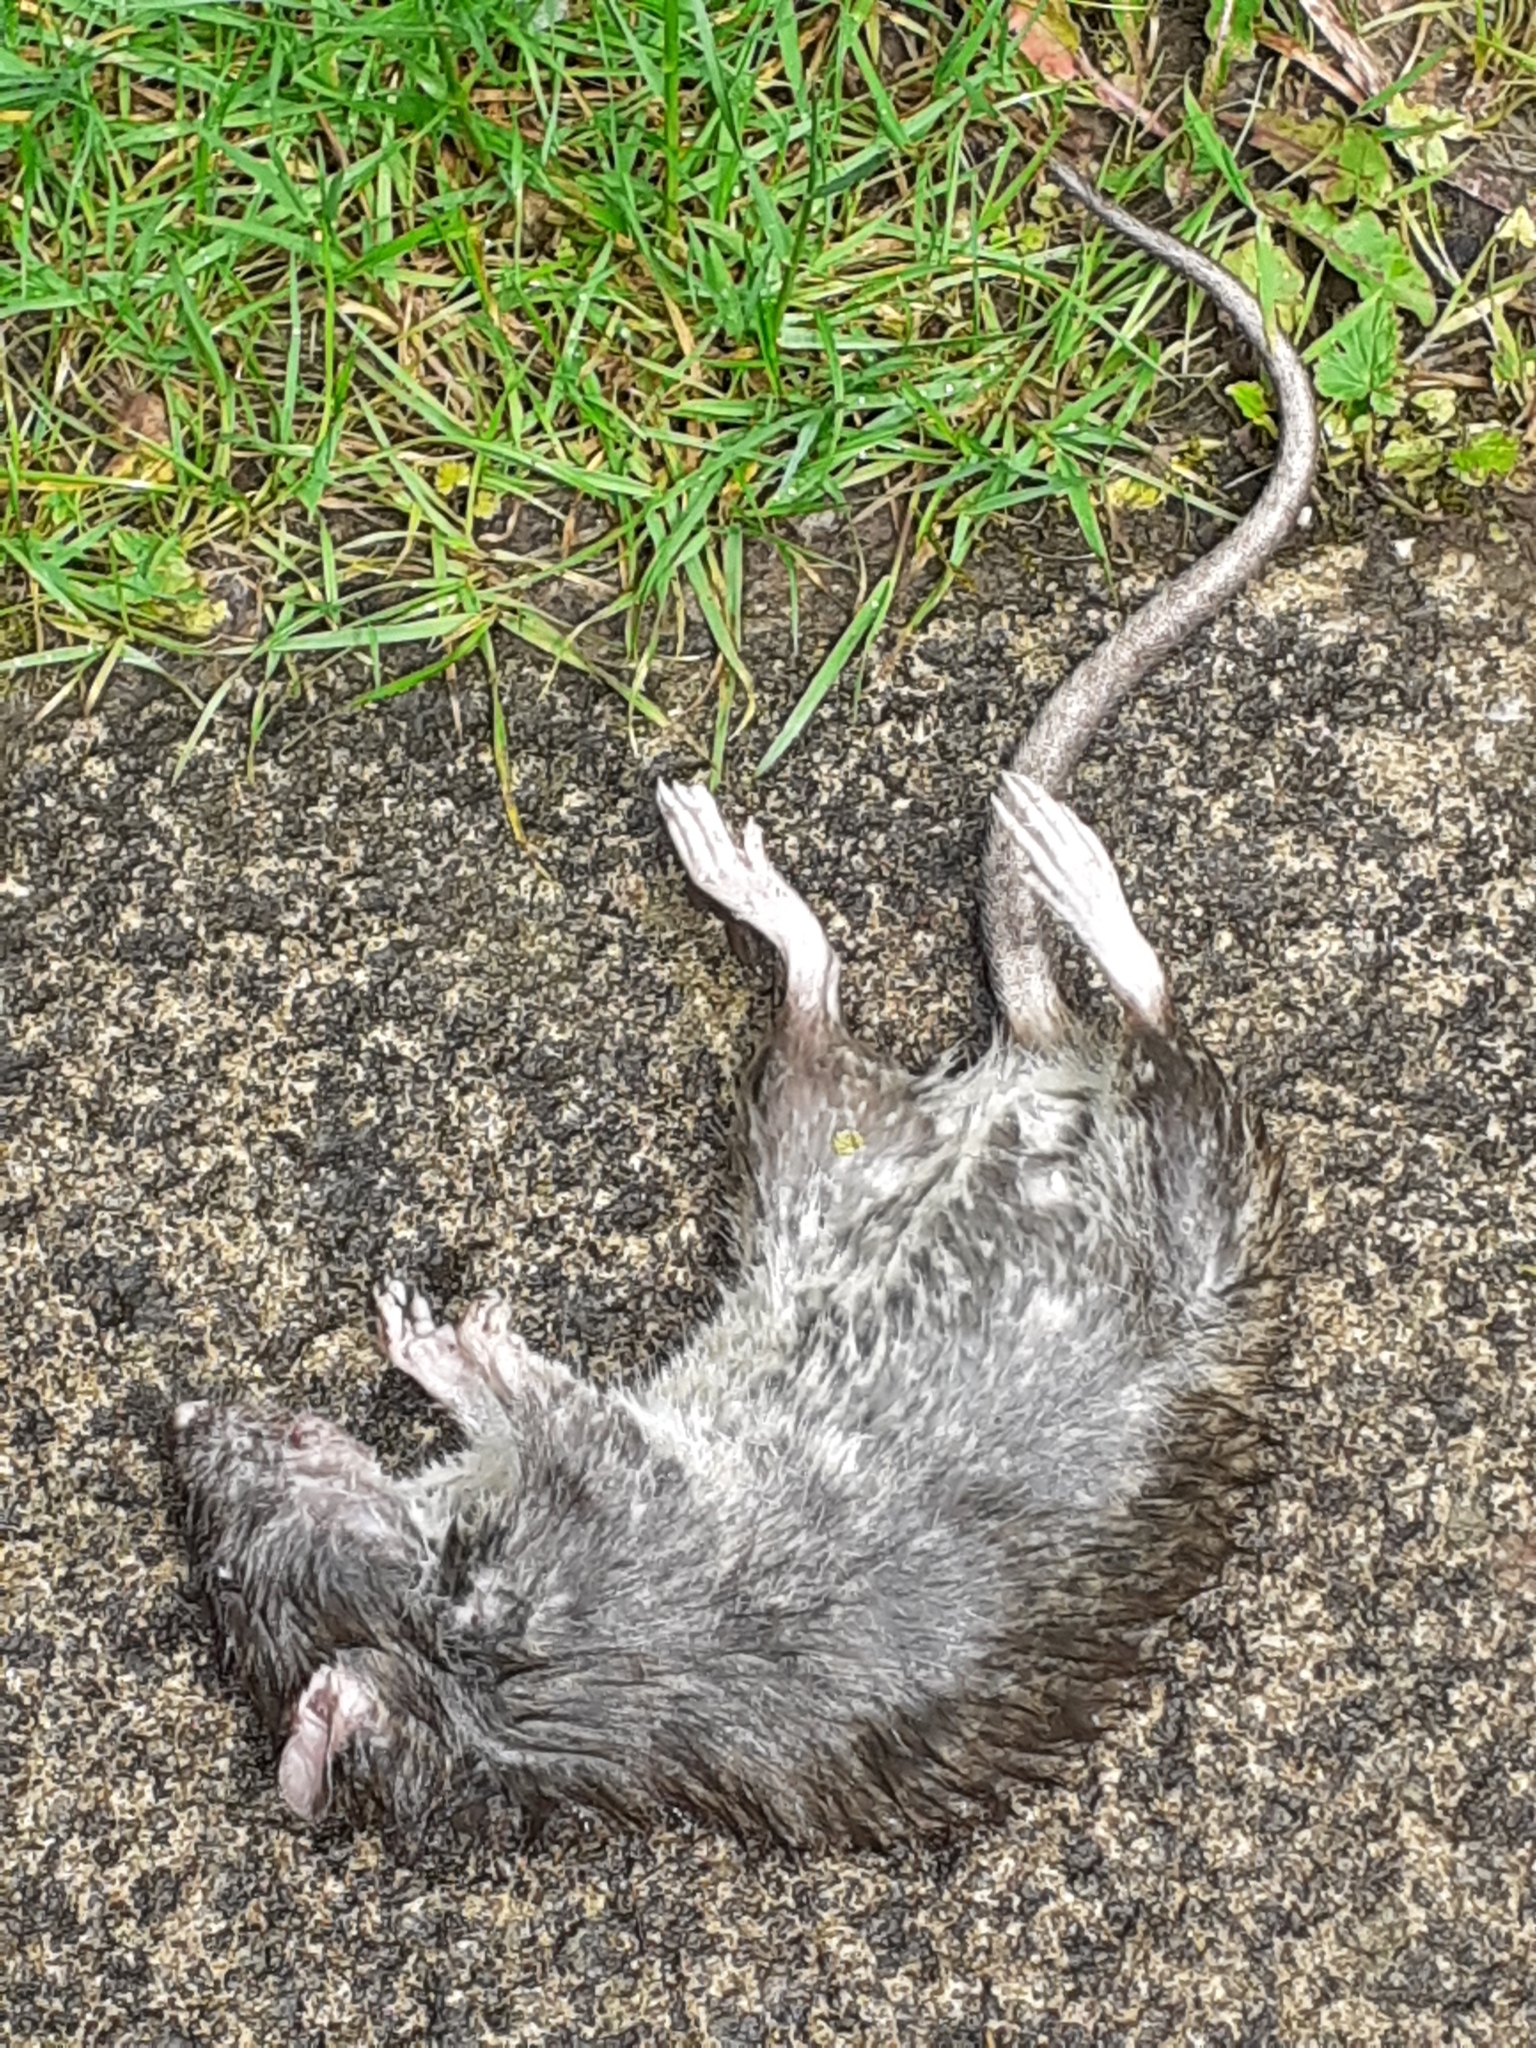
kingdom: Animalia
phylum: Chordata
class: Mammalia
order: Rodentia
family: Muridae
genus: Rattus
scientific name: Rattus norvegicus
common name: Brown rat
